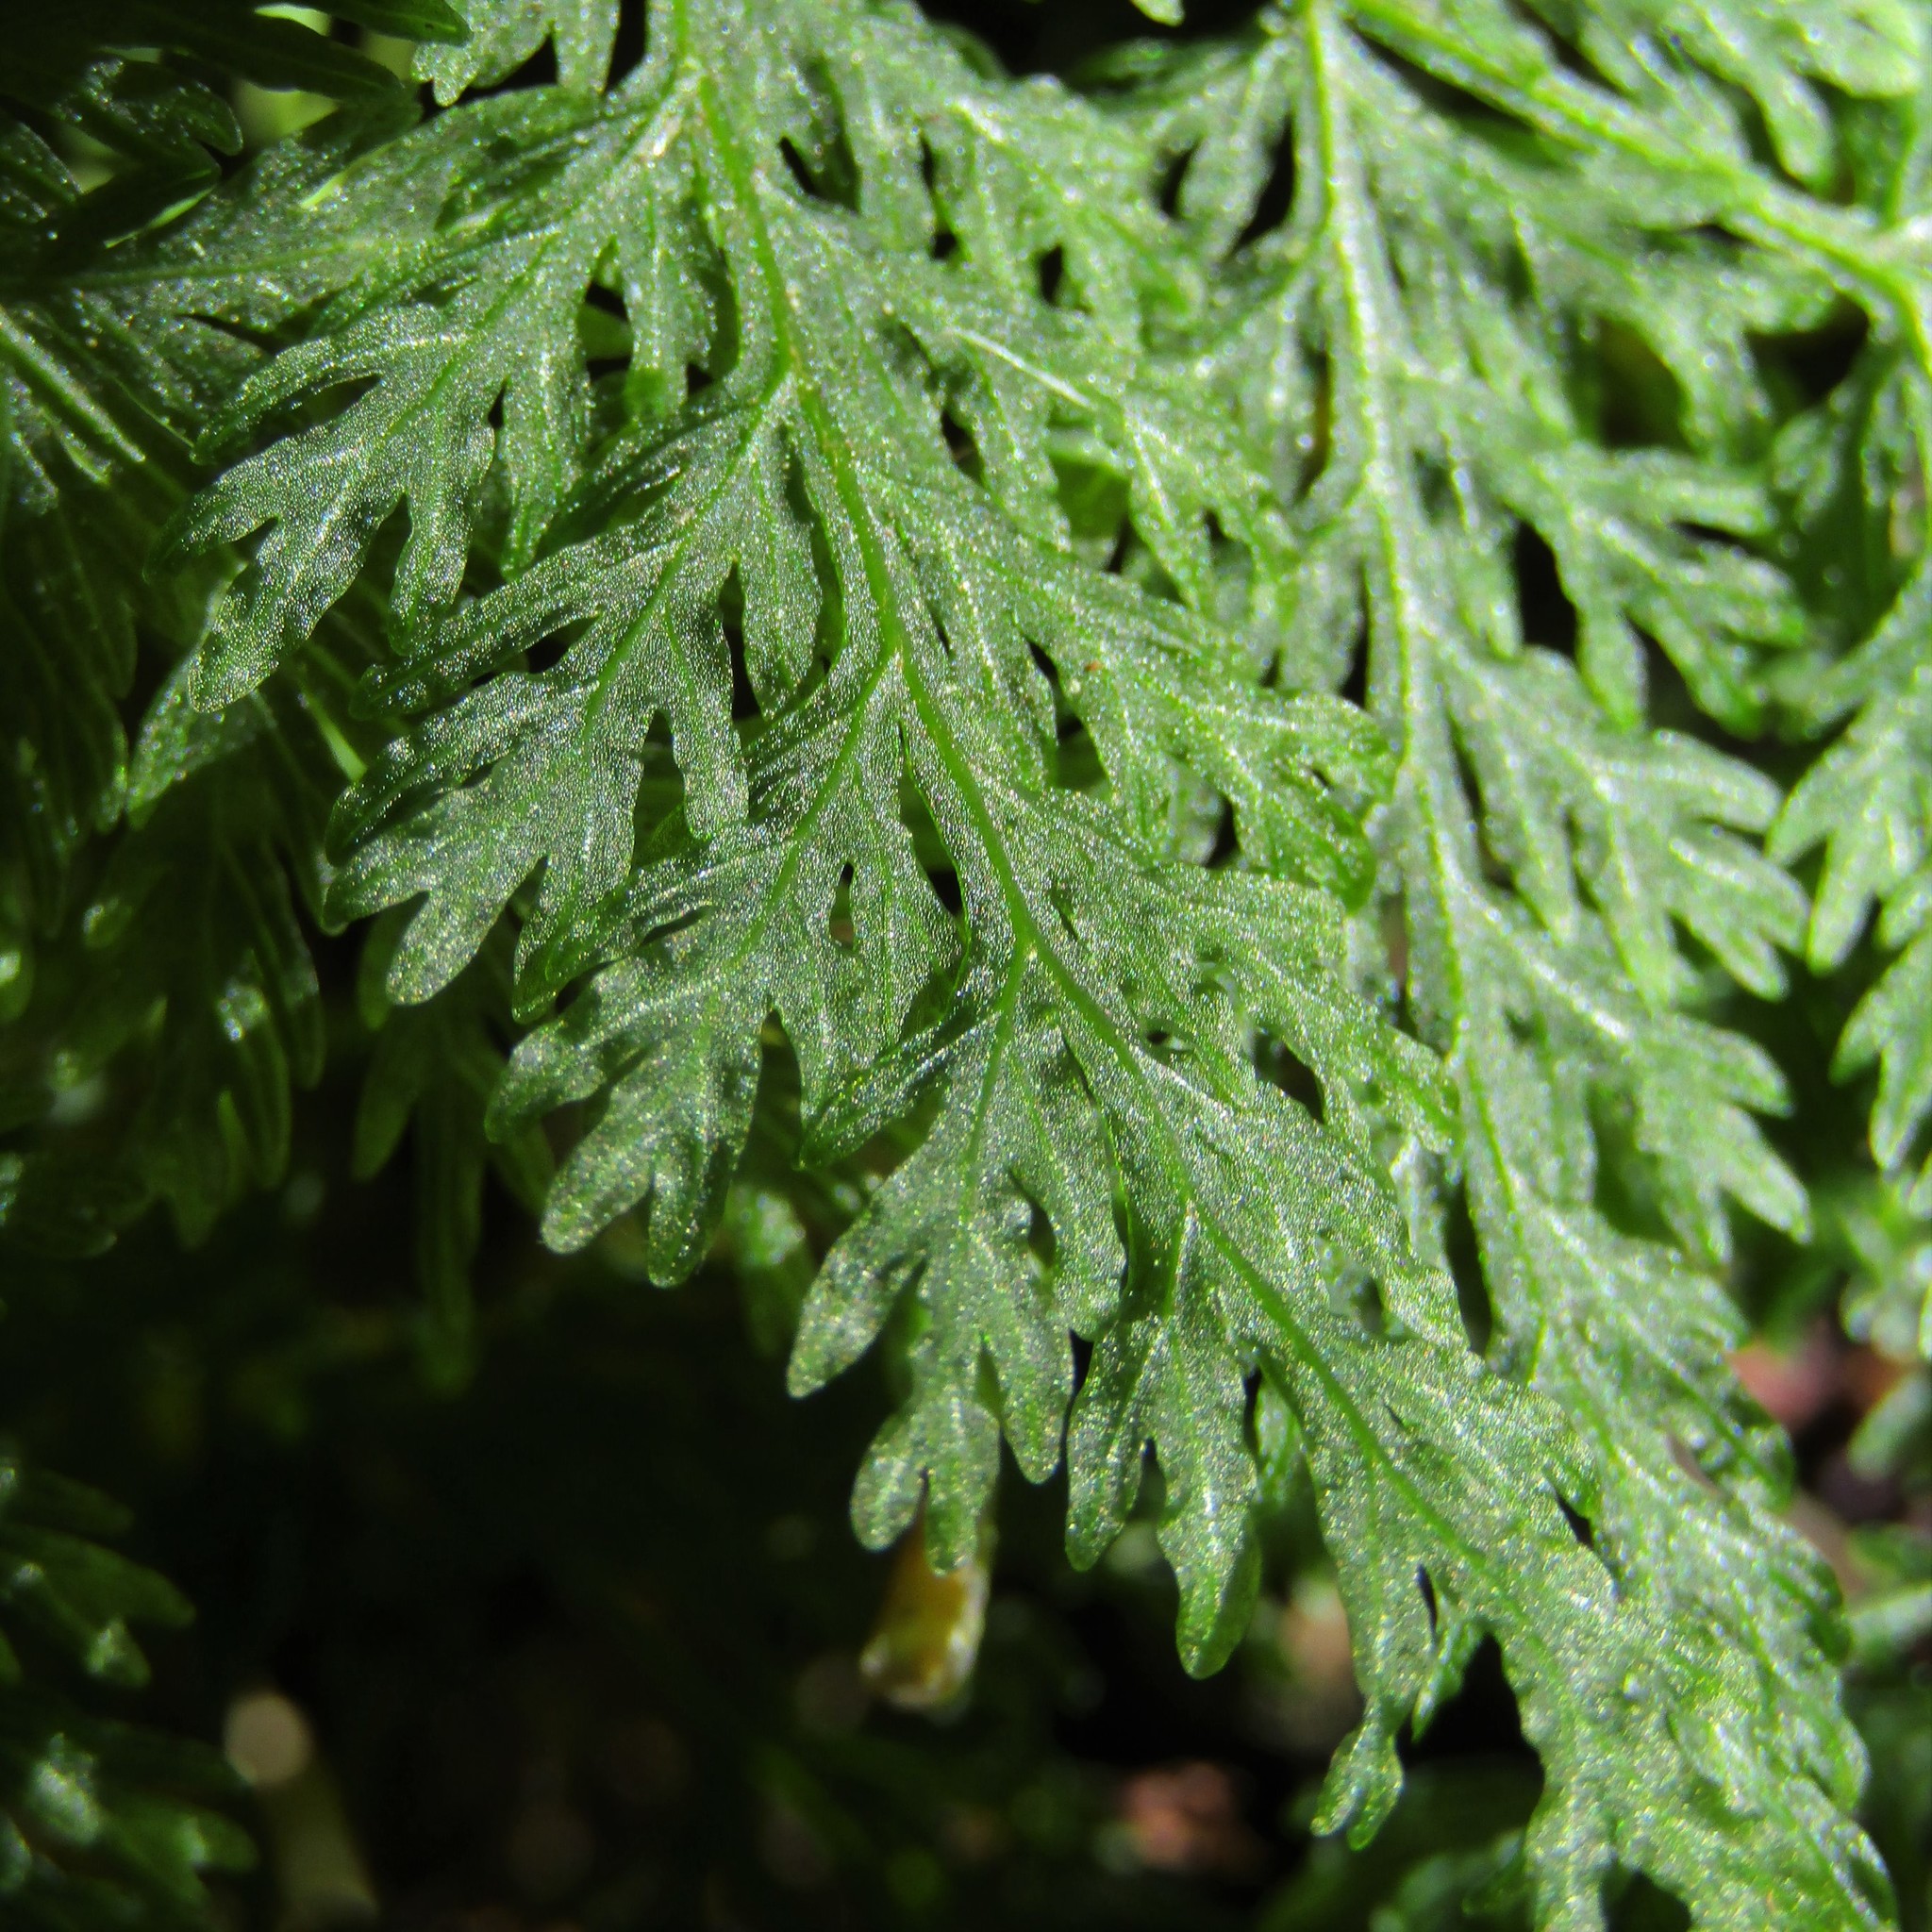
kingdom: Plantae
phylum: Tracheophyta
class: Polypodiopsida
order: Osmundales
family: Osmundaceae
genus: Leptopteris
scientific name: Leptopteris hymenophylloides
